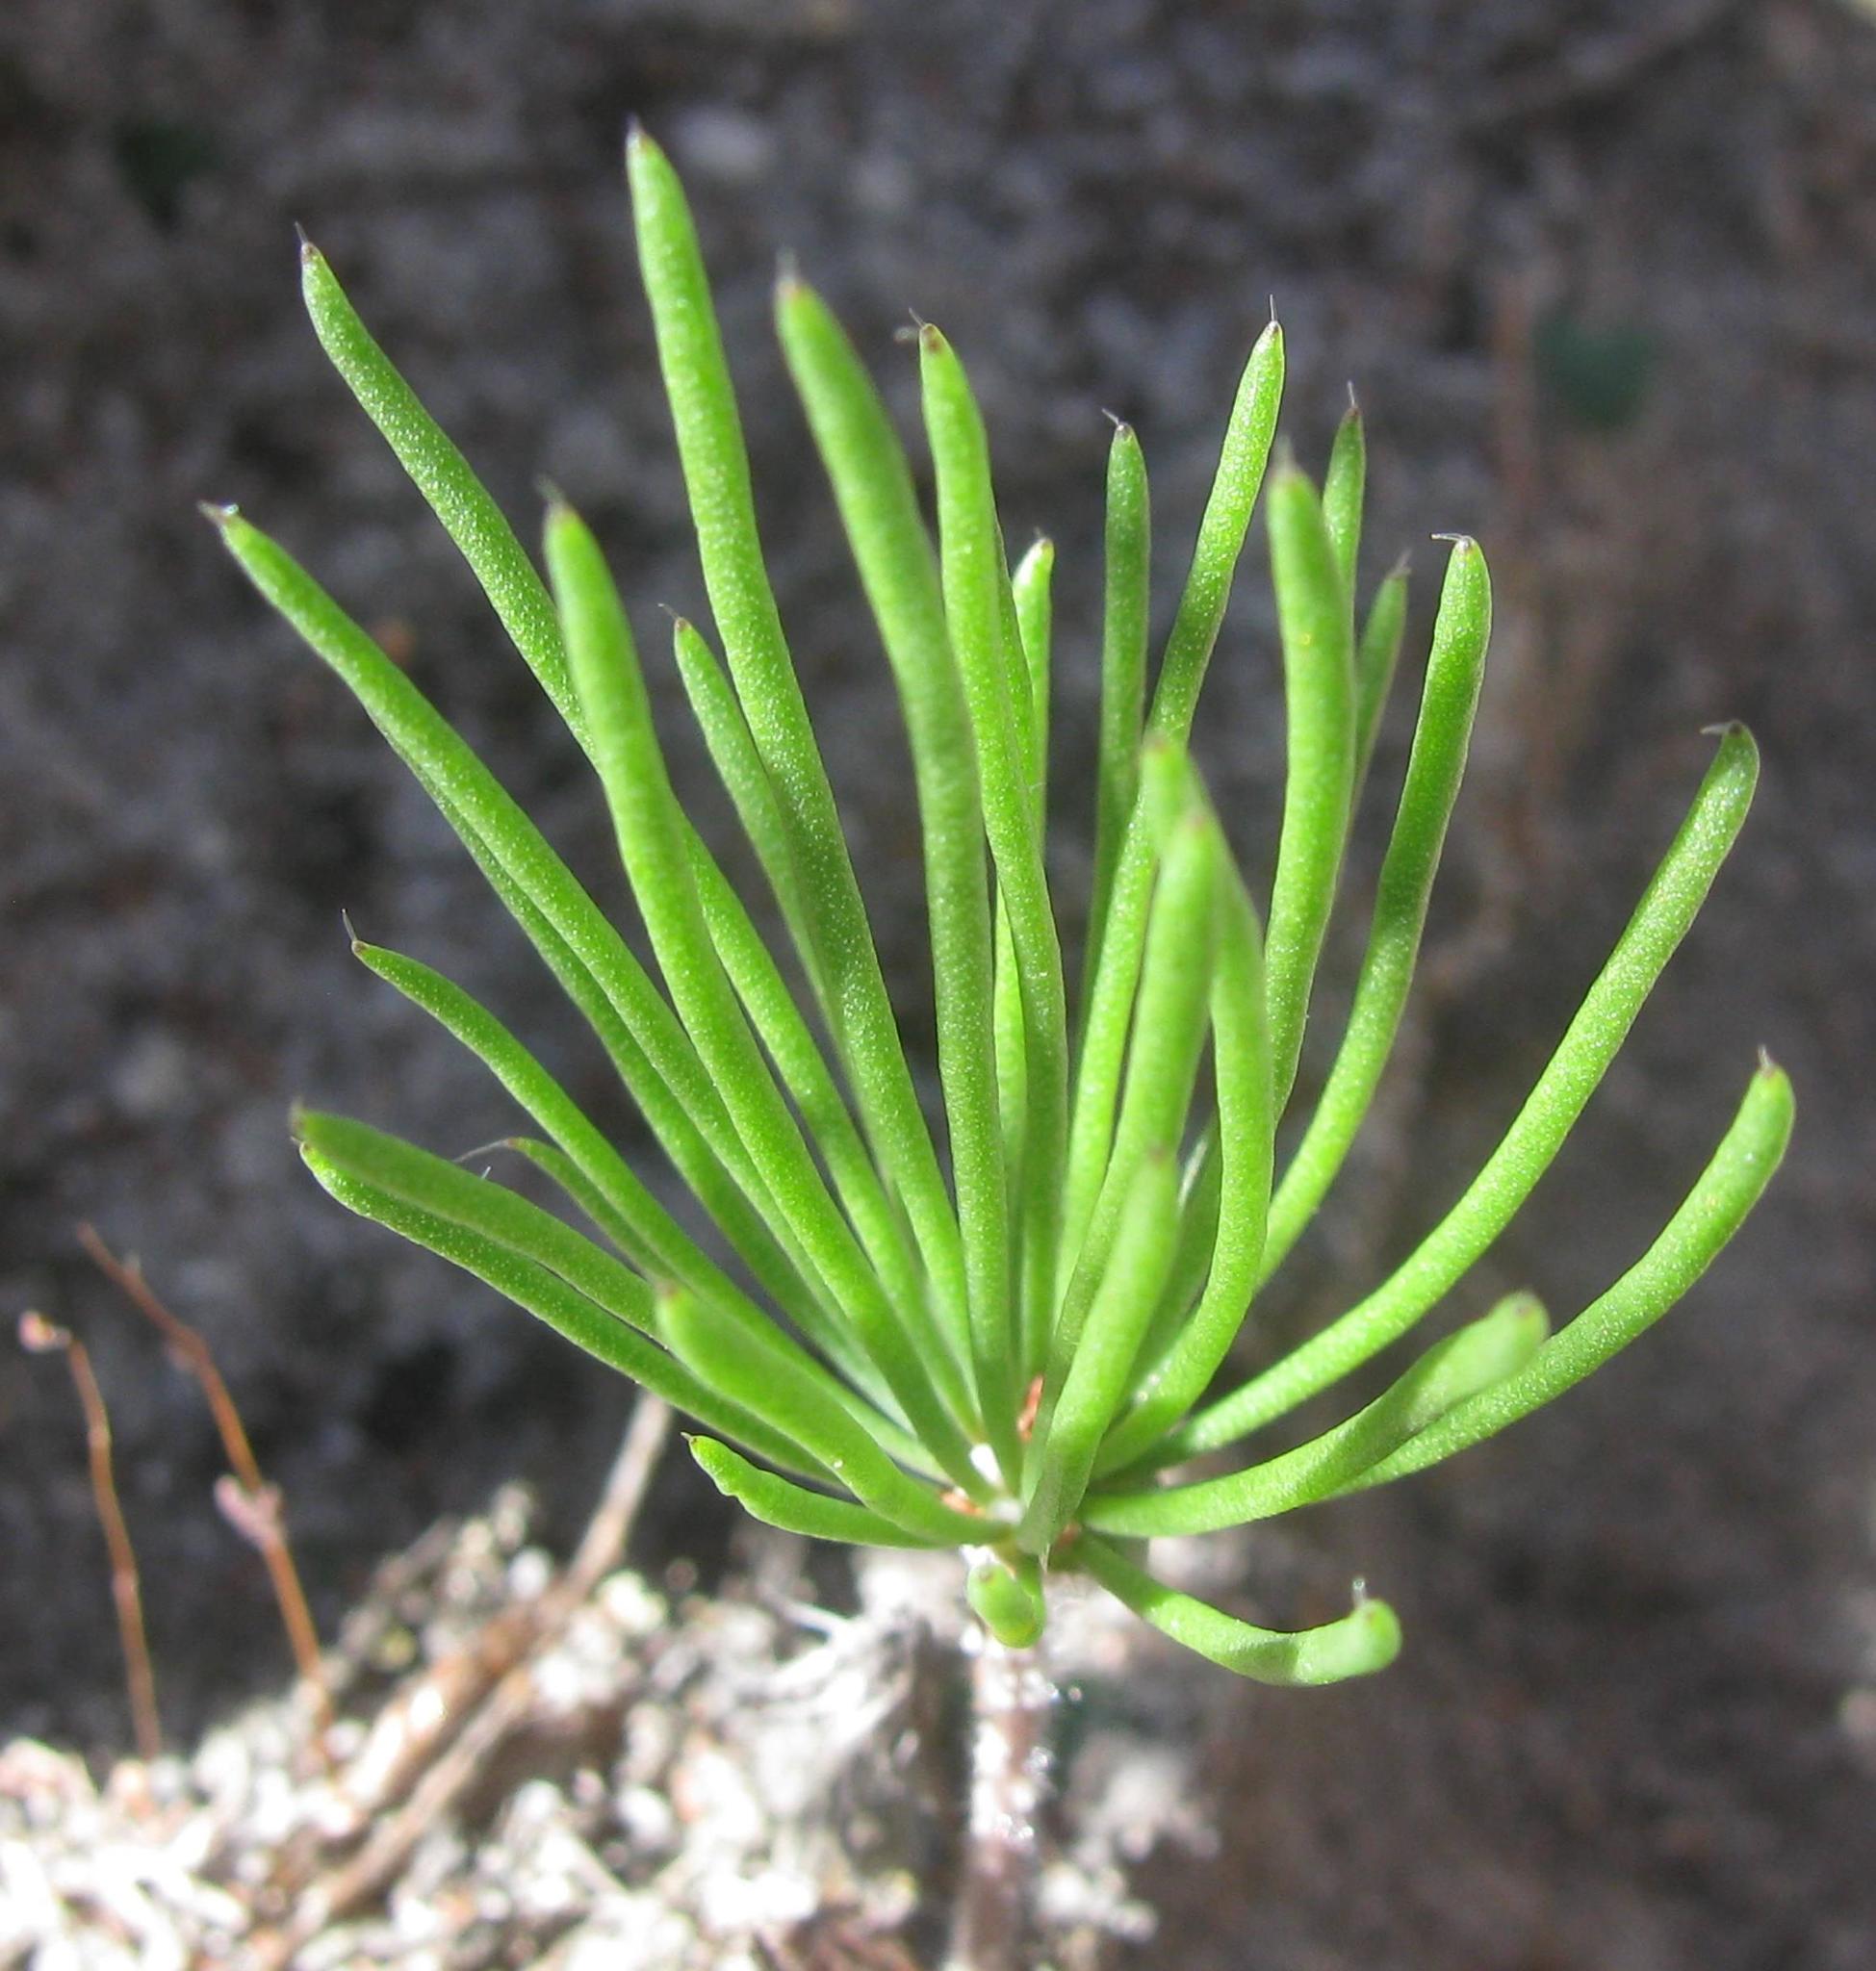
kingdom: Plantae
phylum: Tracheophyta
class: Liliopsida
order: Asparagales
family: Asparagaceae
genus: Eriospermum
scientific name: Eriospermum proliferum
